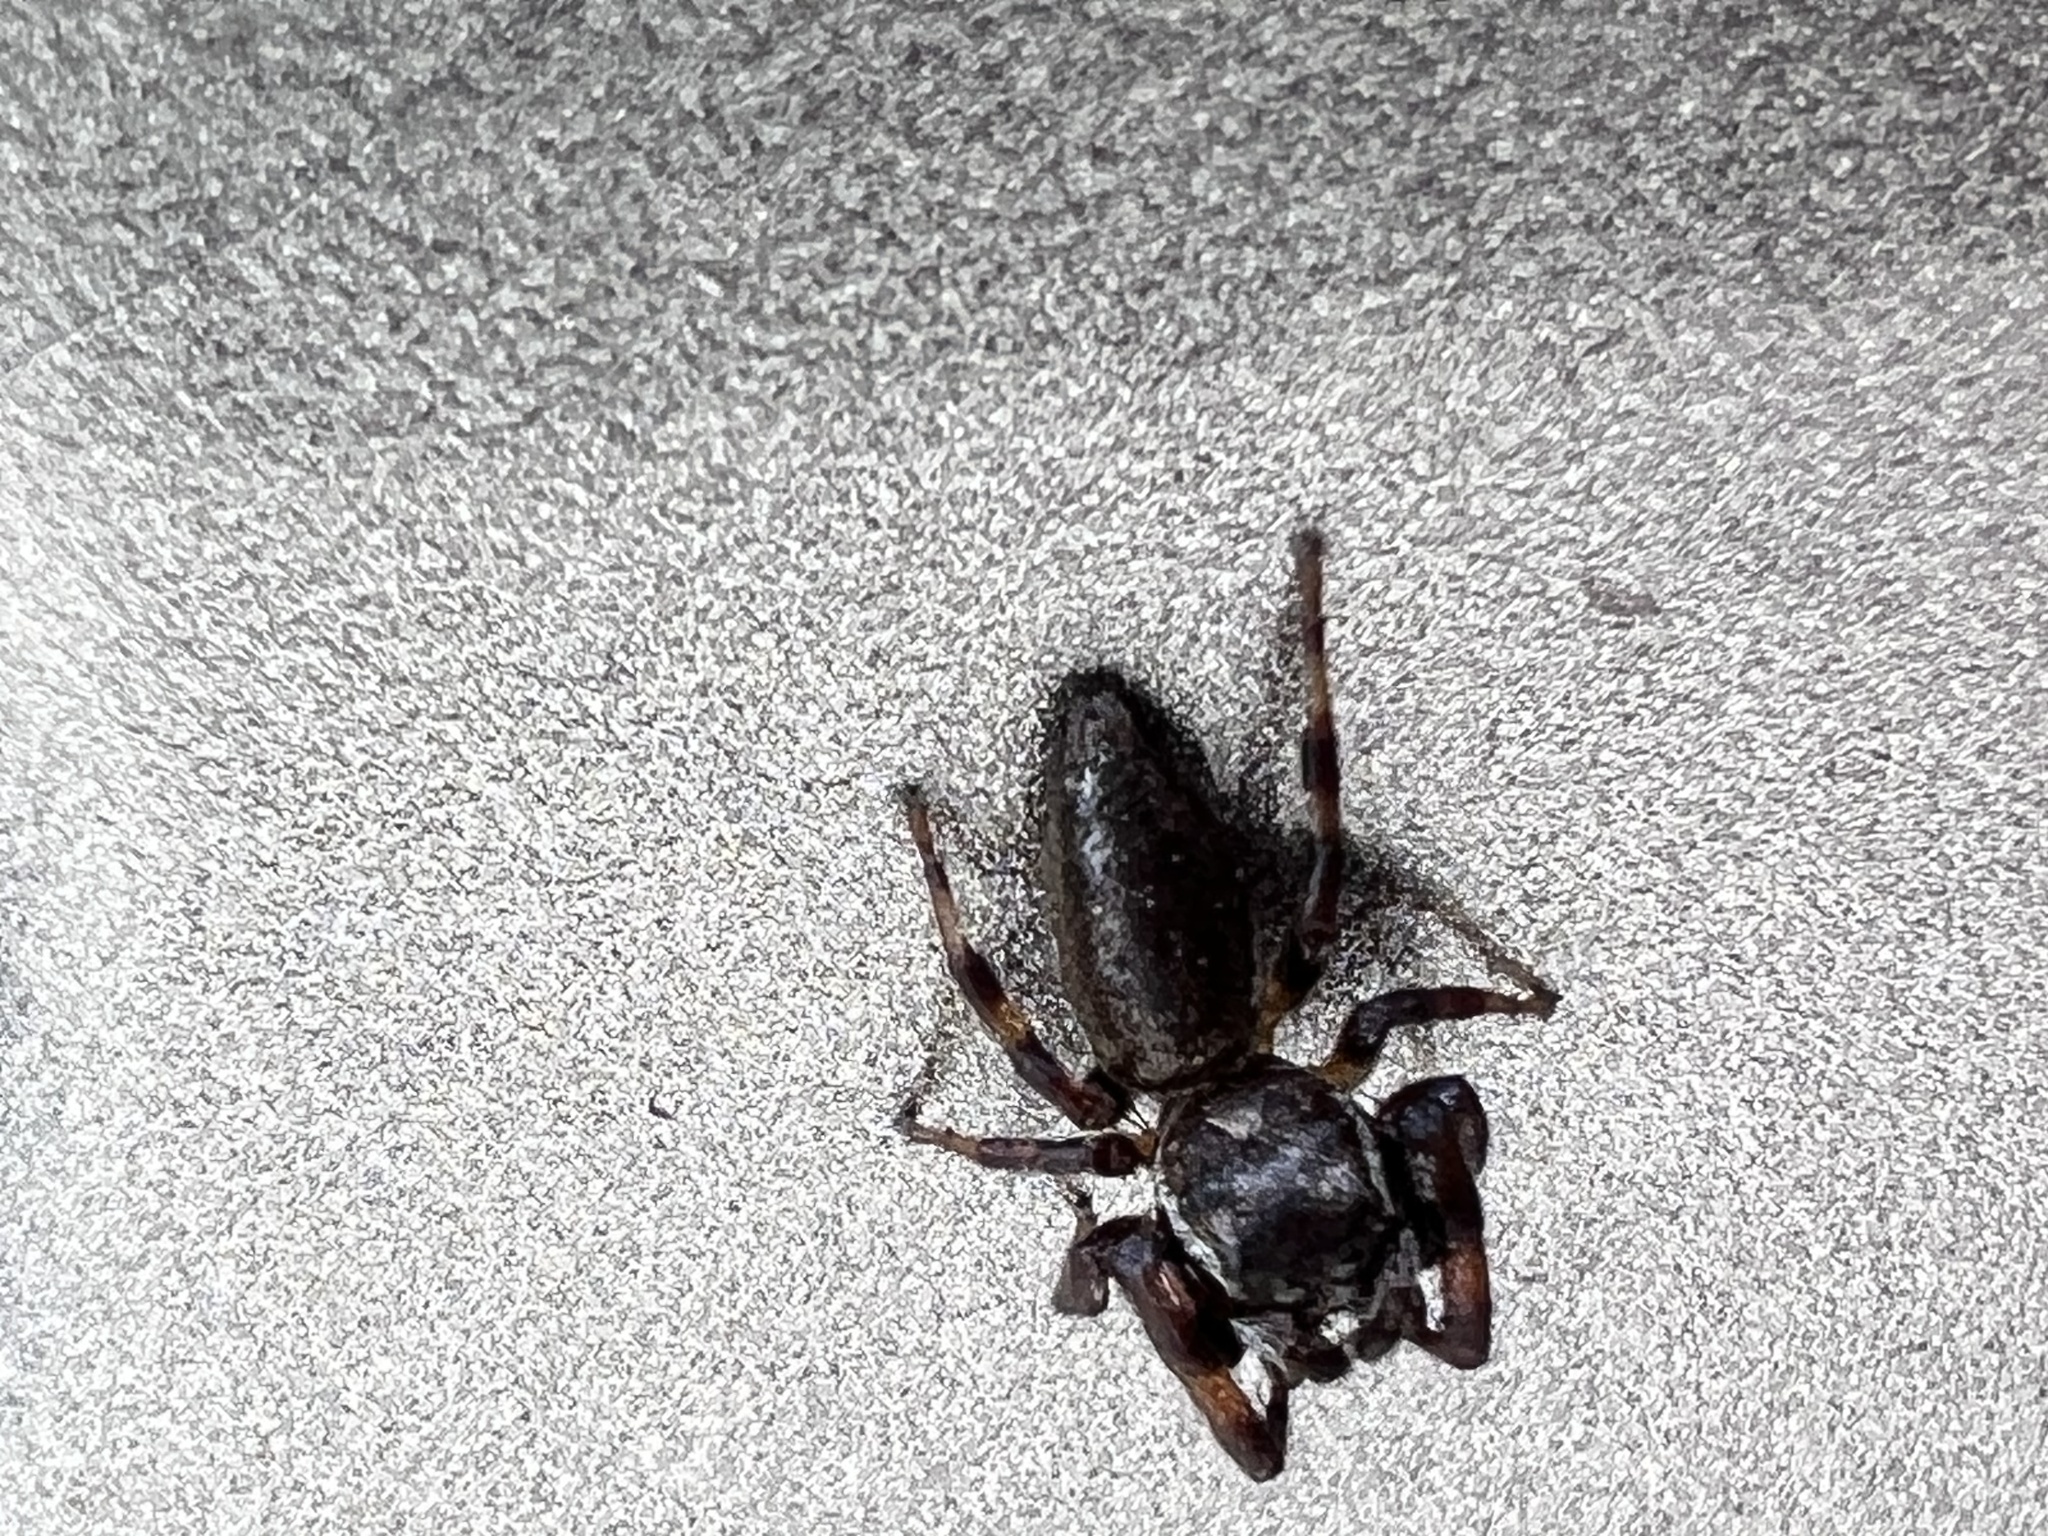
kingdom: Animalia
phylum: Arthropoda
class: Arachnida
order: Araneae
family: Salticidae
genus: Eris
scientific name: Eris floridana
